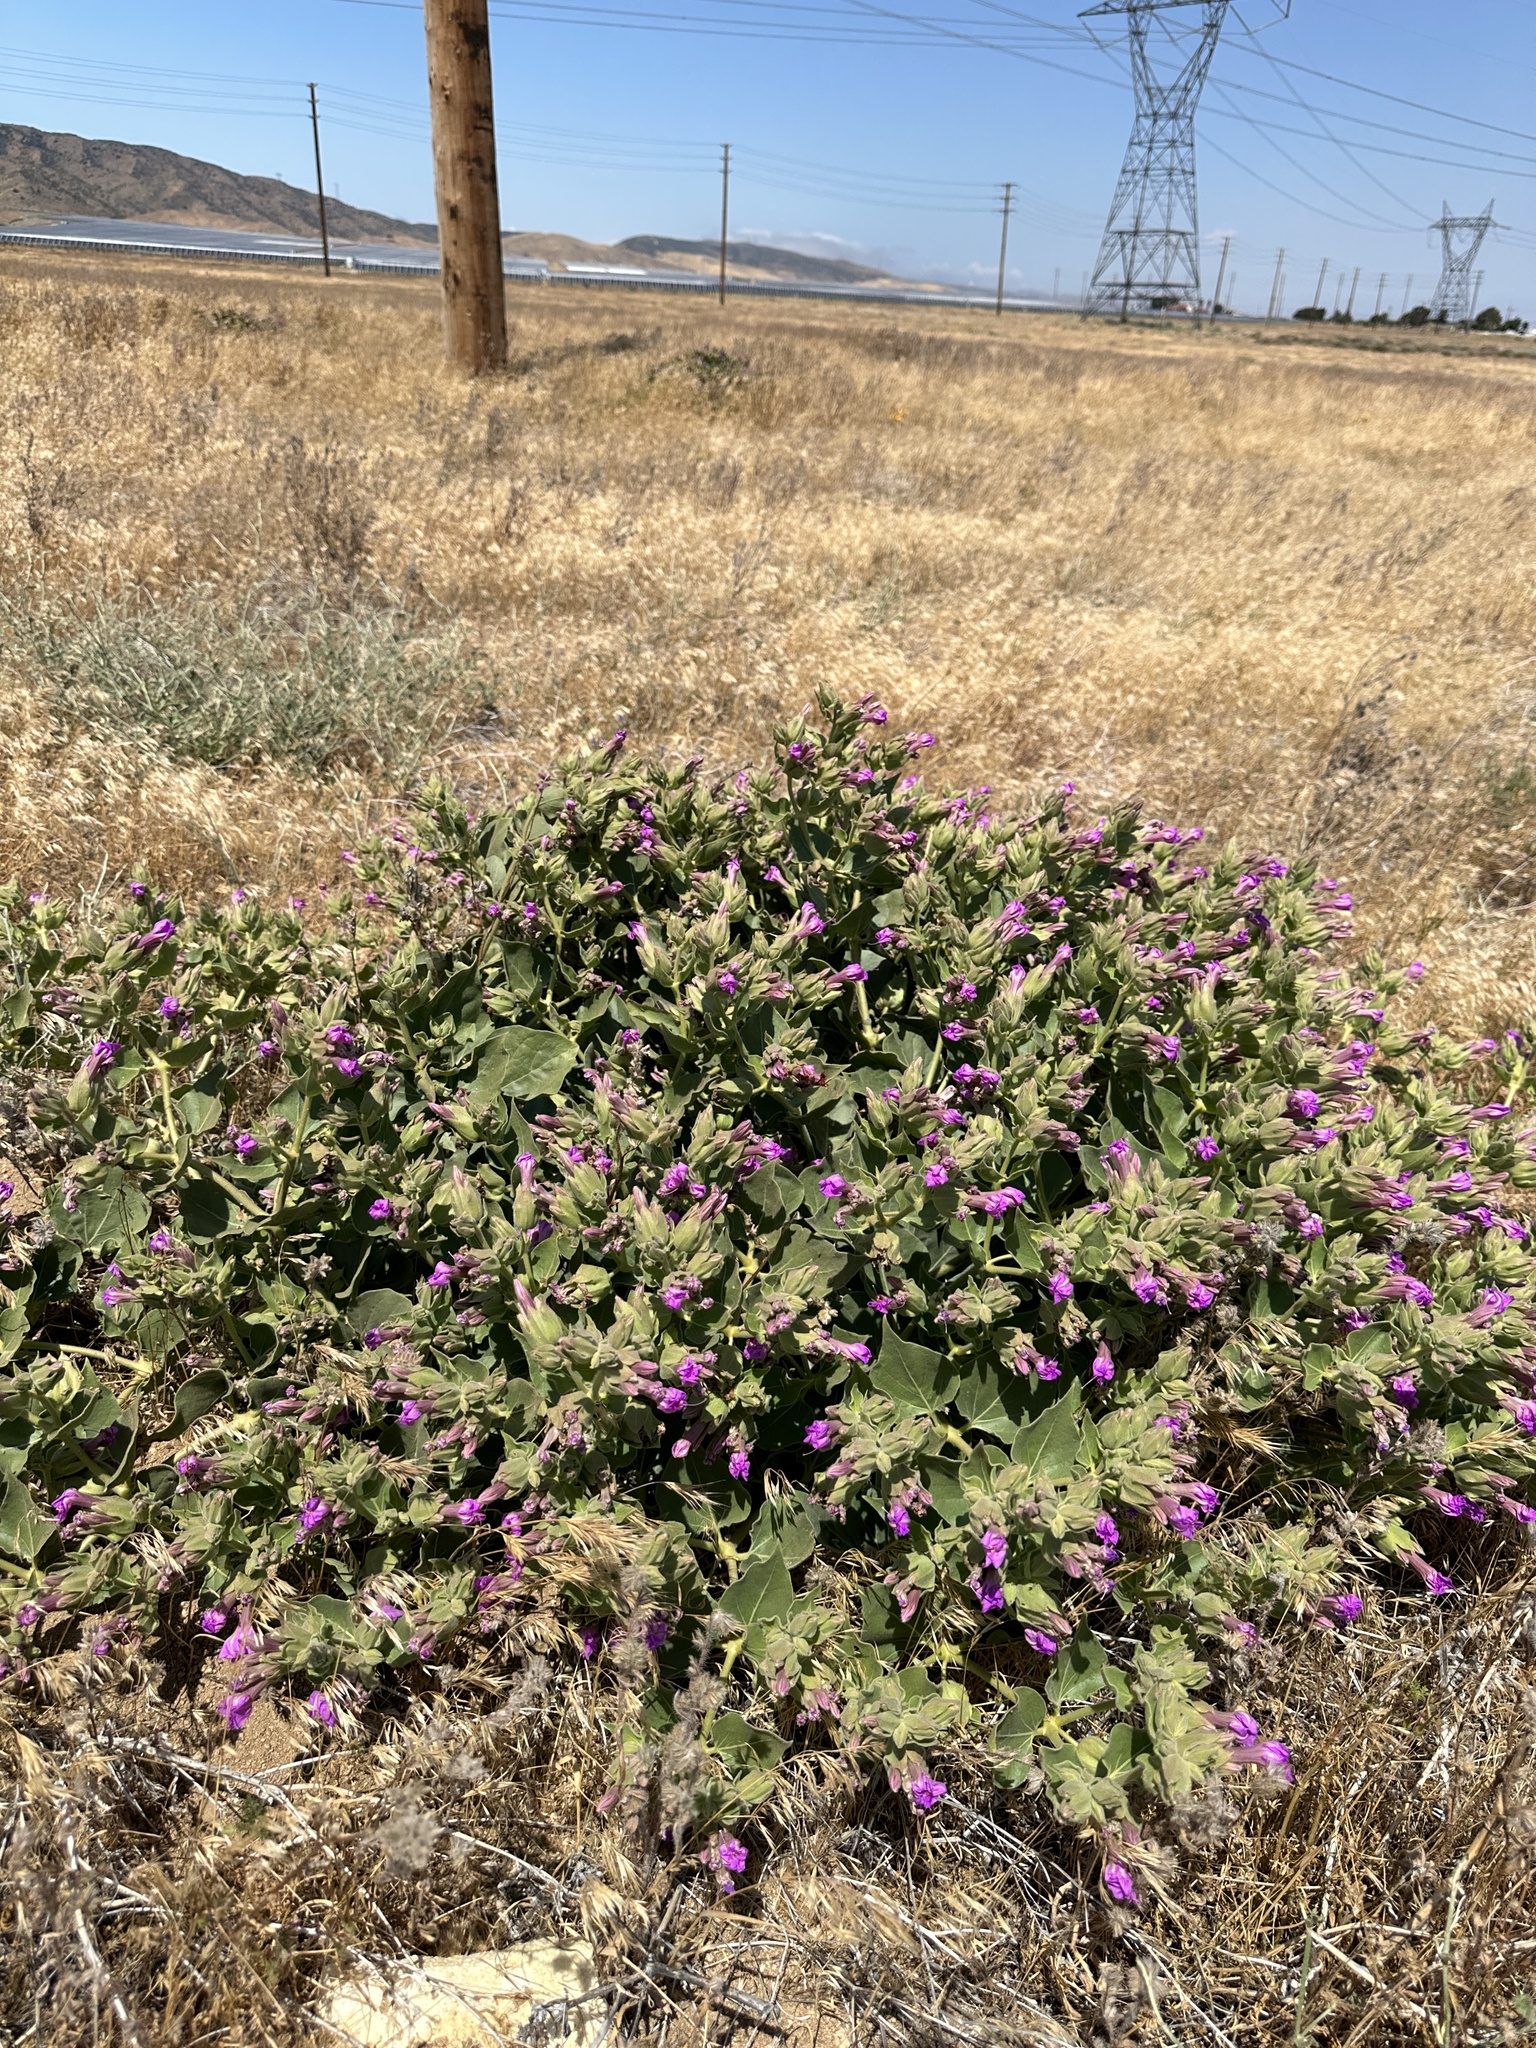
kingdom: Plantae
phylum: Tracheophyta
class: Magnoliopsida
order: Caryophyllales
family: Nyctaginaceae
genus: Mirabilis
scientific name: Mirabilis multiflora
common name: Froebel's four-o'clock
